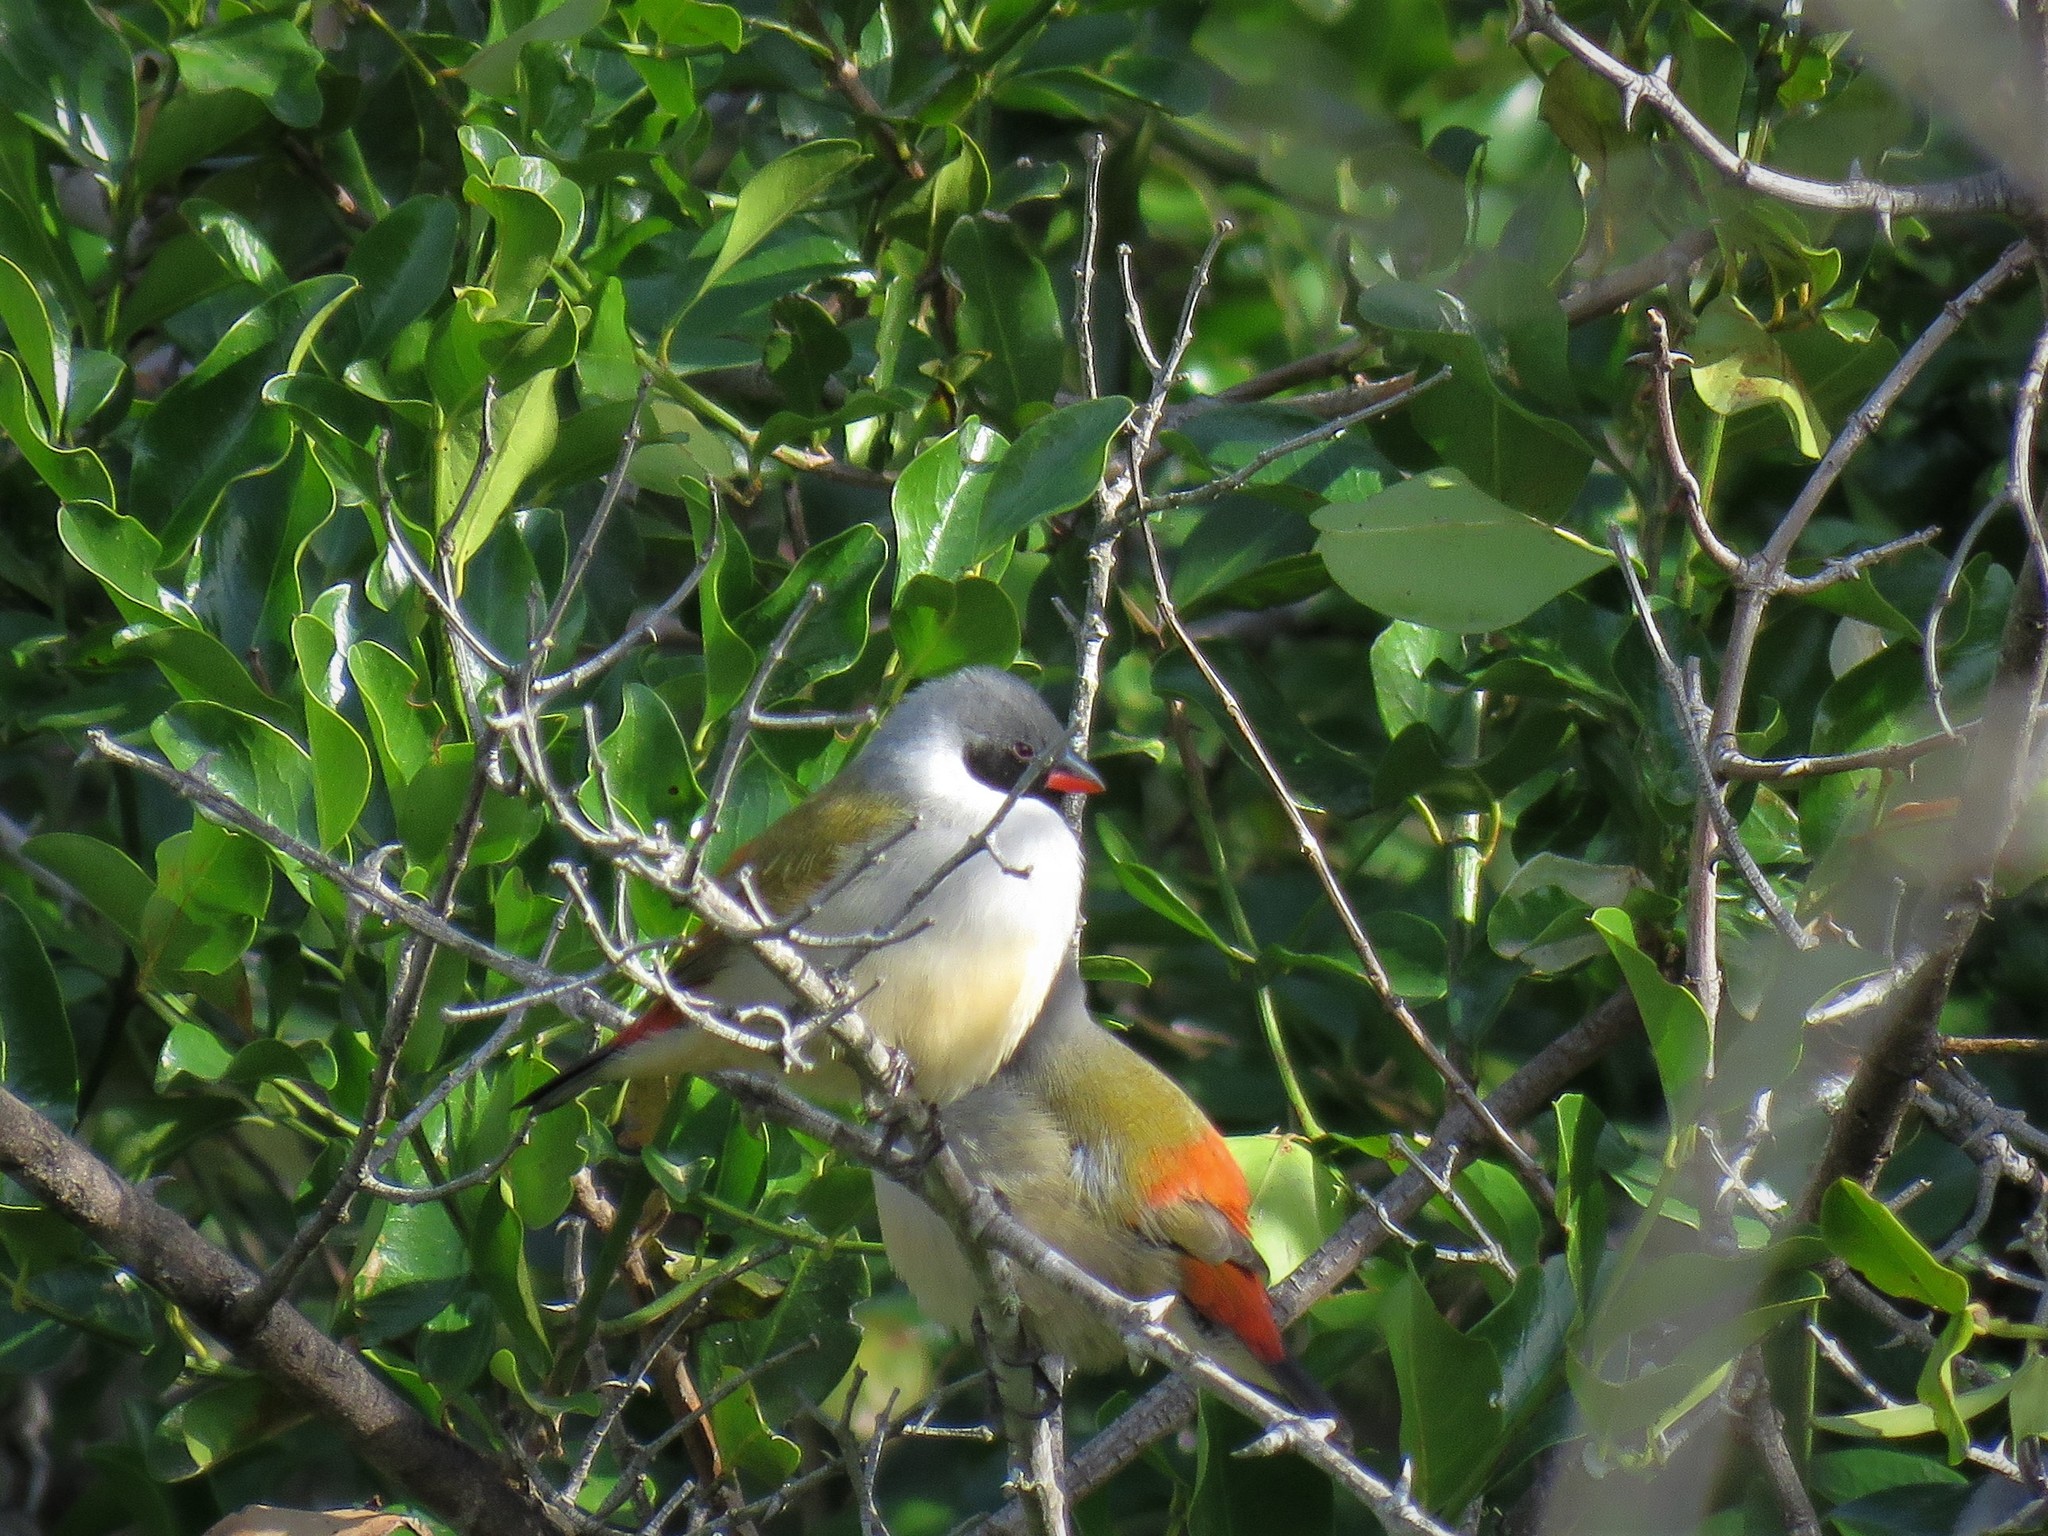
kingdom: Animalia
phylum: Chordata
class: Aves
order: Passeriformes
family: Estrildidae
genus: Coccopygia
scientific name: Coccopygia melanotis
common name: Swee waxbill
